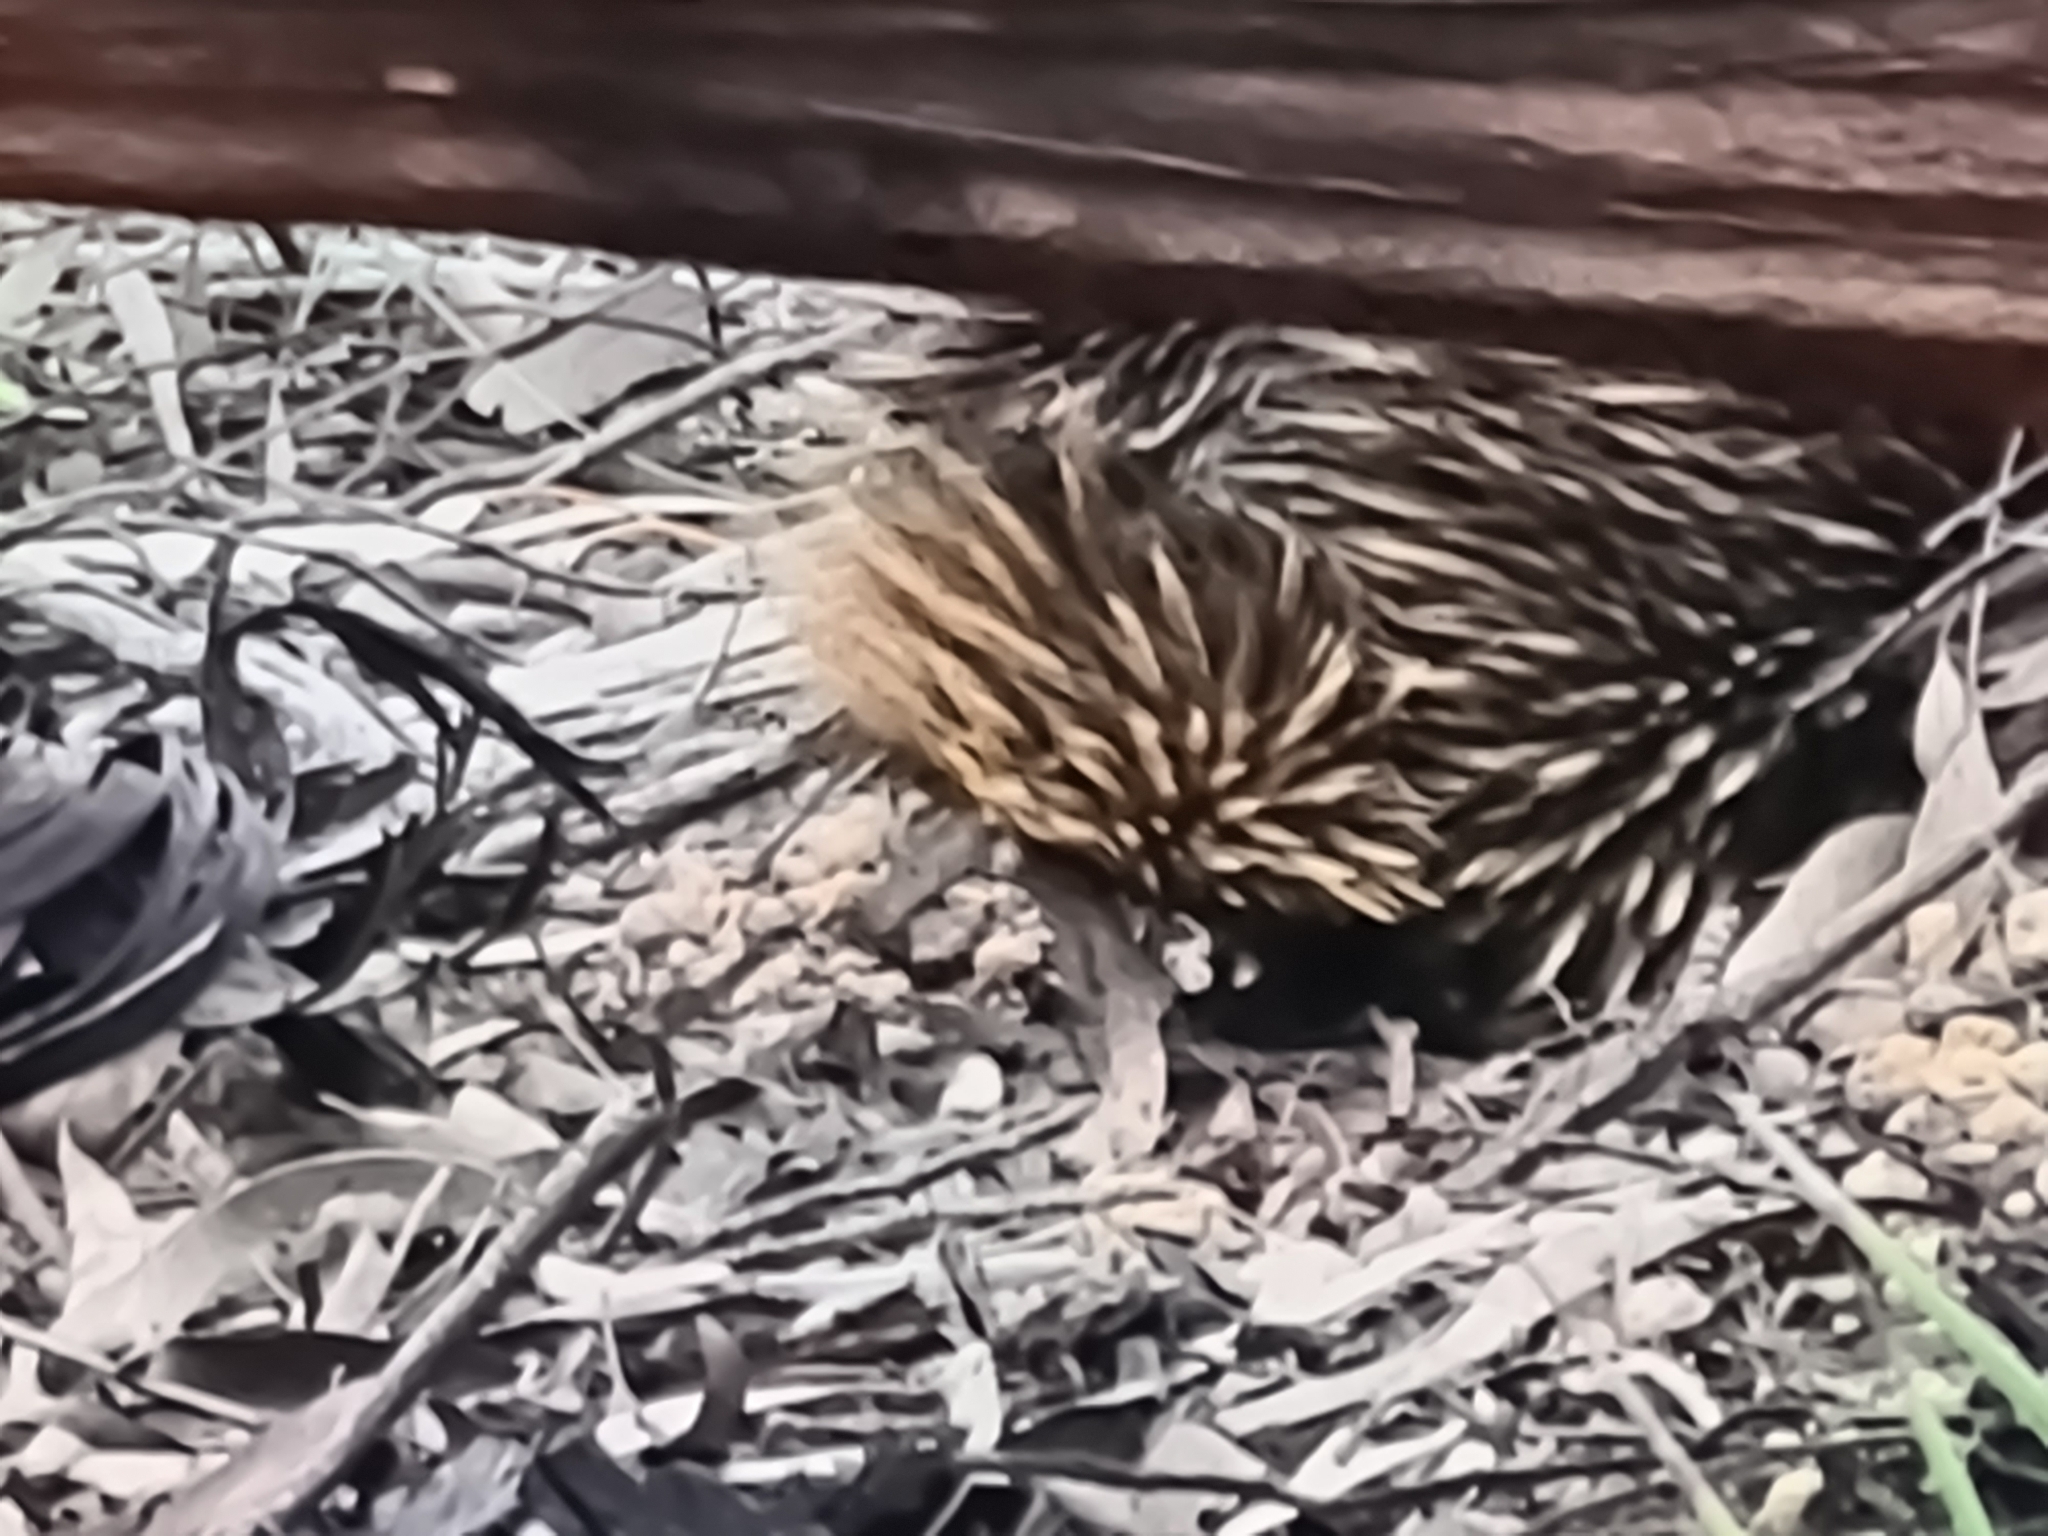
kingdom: Animalia
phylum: Chordata
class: Mammalia
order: Monotremata
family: Tachyglossidae
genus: Tachyglossus
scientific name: Tachyglossus aculeatus
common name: Short-beaked echidna
